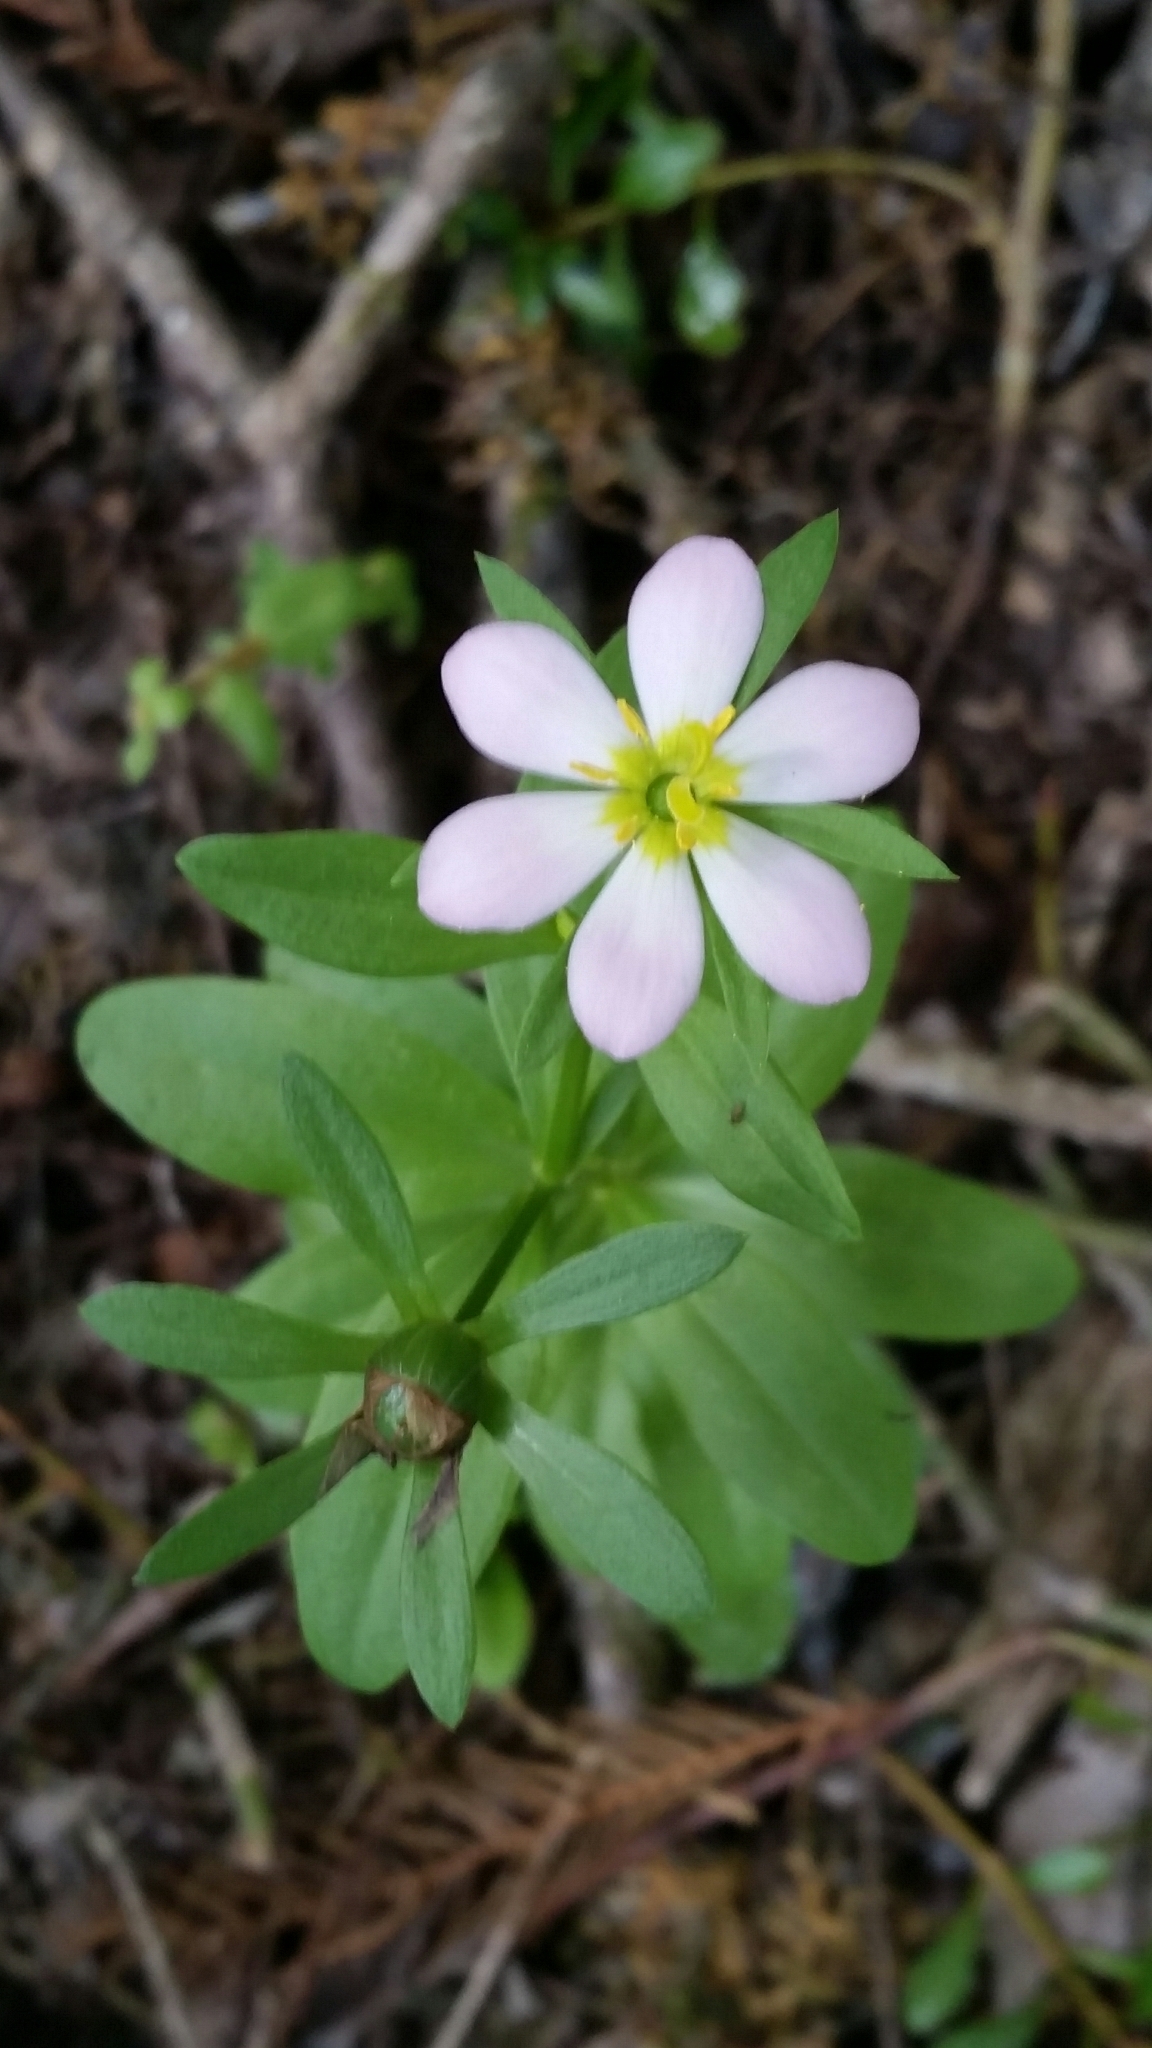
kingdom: Plantae
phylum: Tracheophyta
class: Magnoliopsida
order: Gentianales
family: Gentianaceae
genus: Sabatia
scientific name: Sabatia calycina
